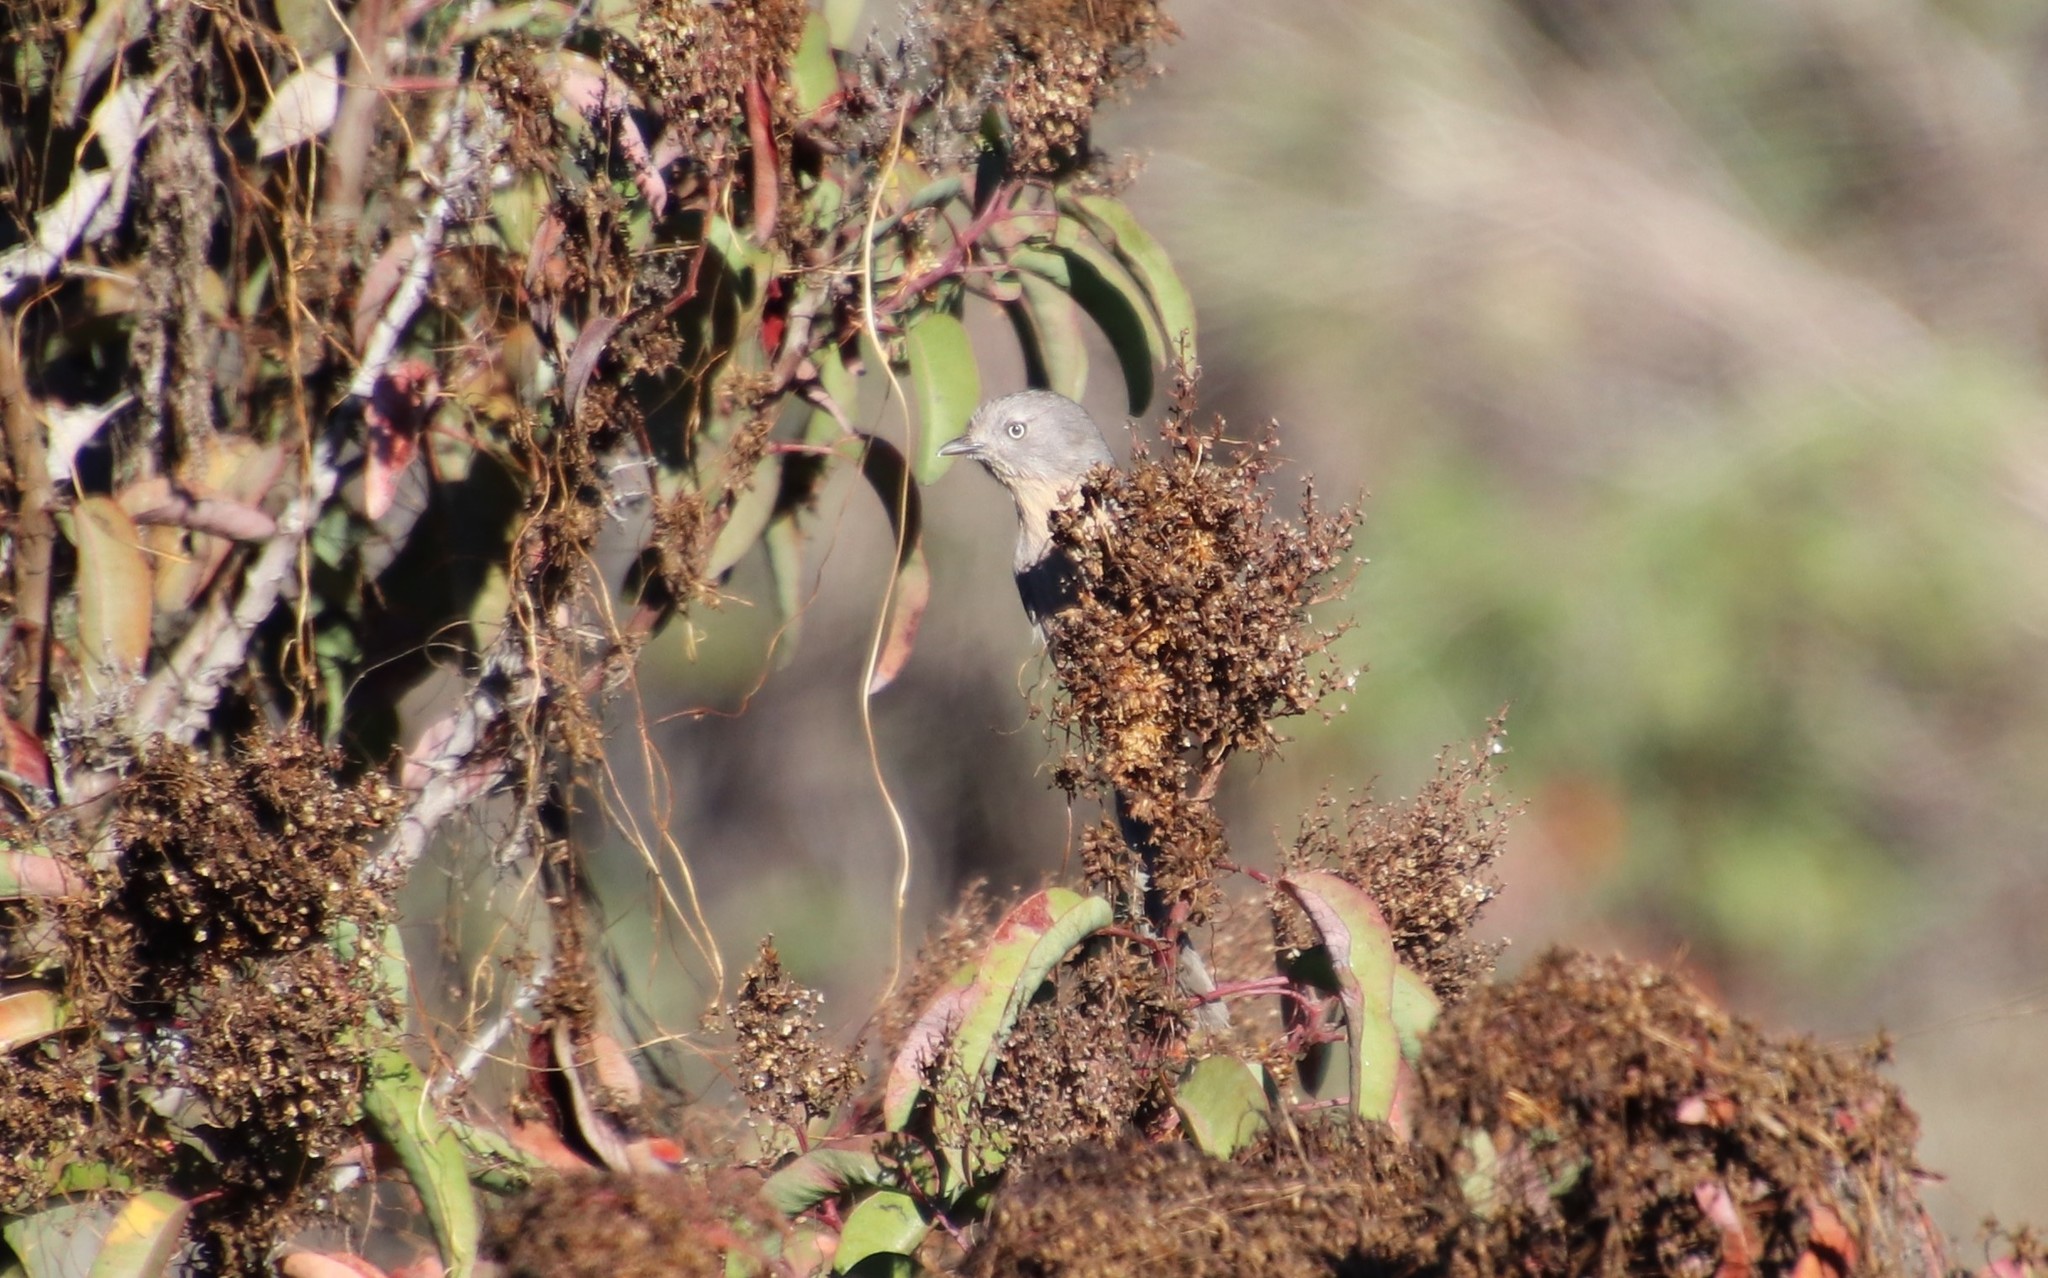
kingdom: Animalia
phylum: Chordata
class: Aves
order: Passeriformes
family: Sylviidae
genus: Chamaea
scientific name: Chamaea fasciata
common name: Wrentit
